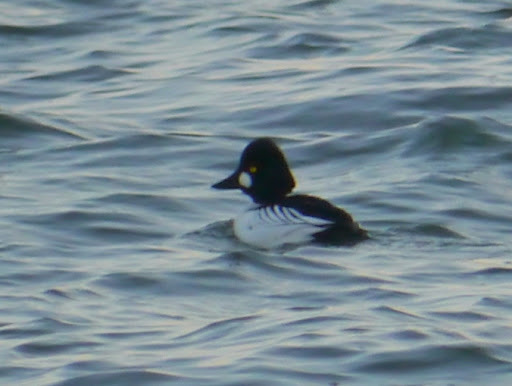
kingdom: Animalia
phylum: Chordata
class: Aves
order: Anseriformes
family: Anatidae
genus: Bucephala
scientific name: Bucephala clangula
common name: Common goldeneye
